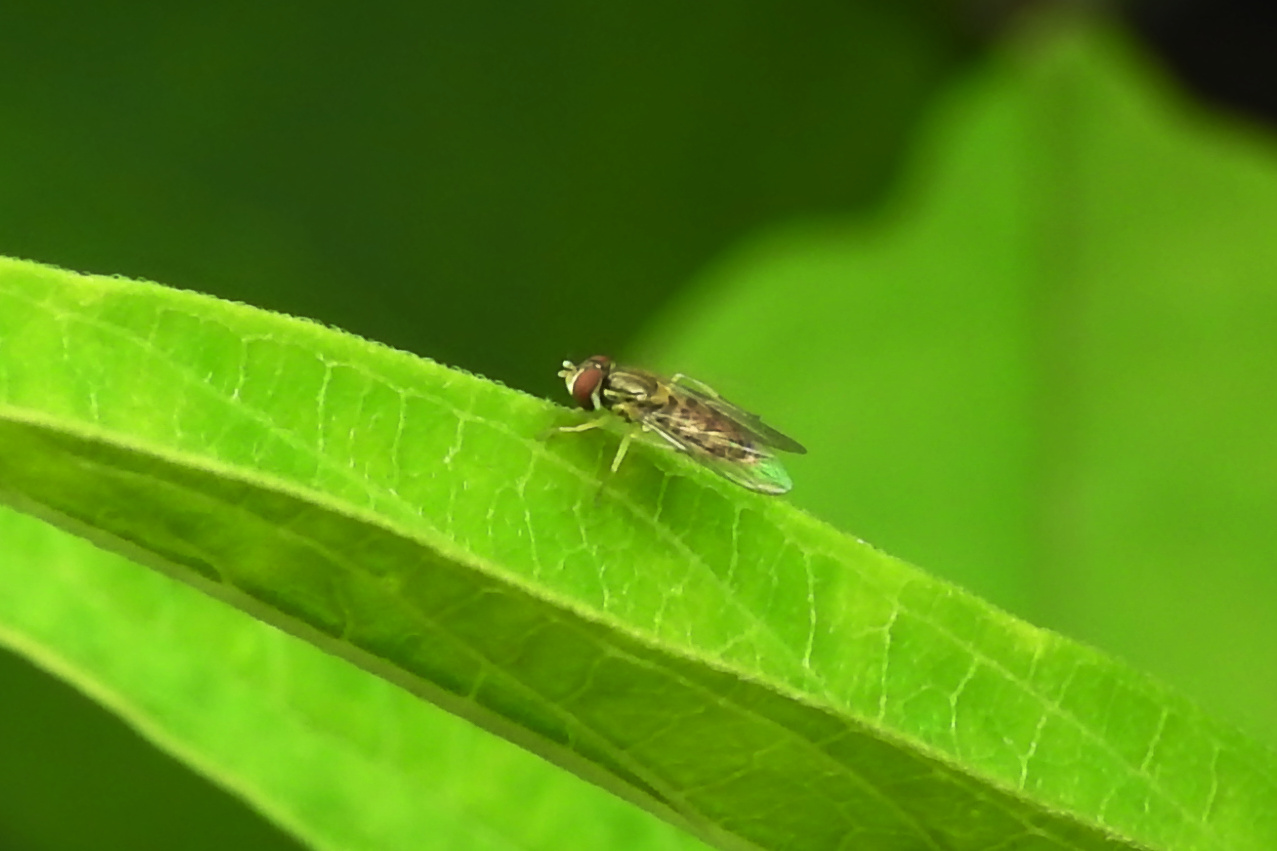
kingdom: Animalia
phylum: Arthropoda
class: Insecta
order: Diptera
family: Syrphidae
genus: Toxomerus
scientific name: Toxomerus marginatus
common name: Syrphid fly
